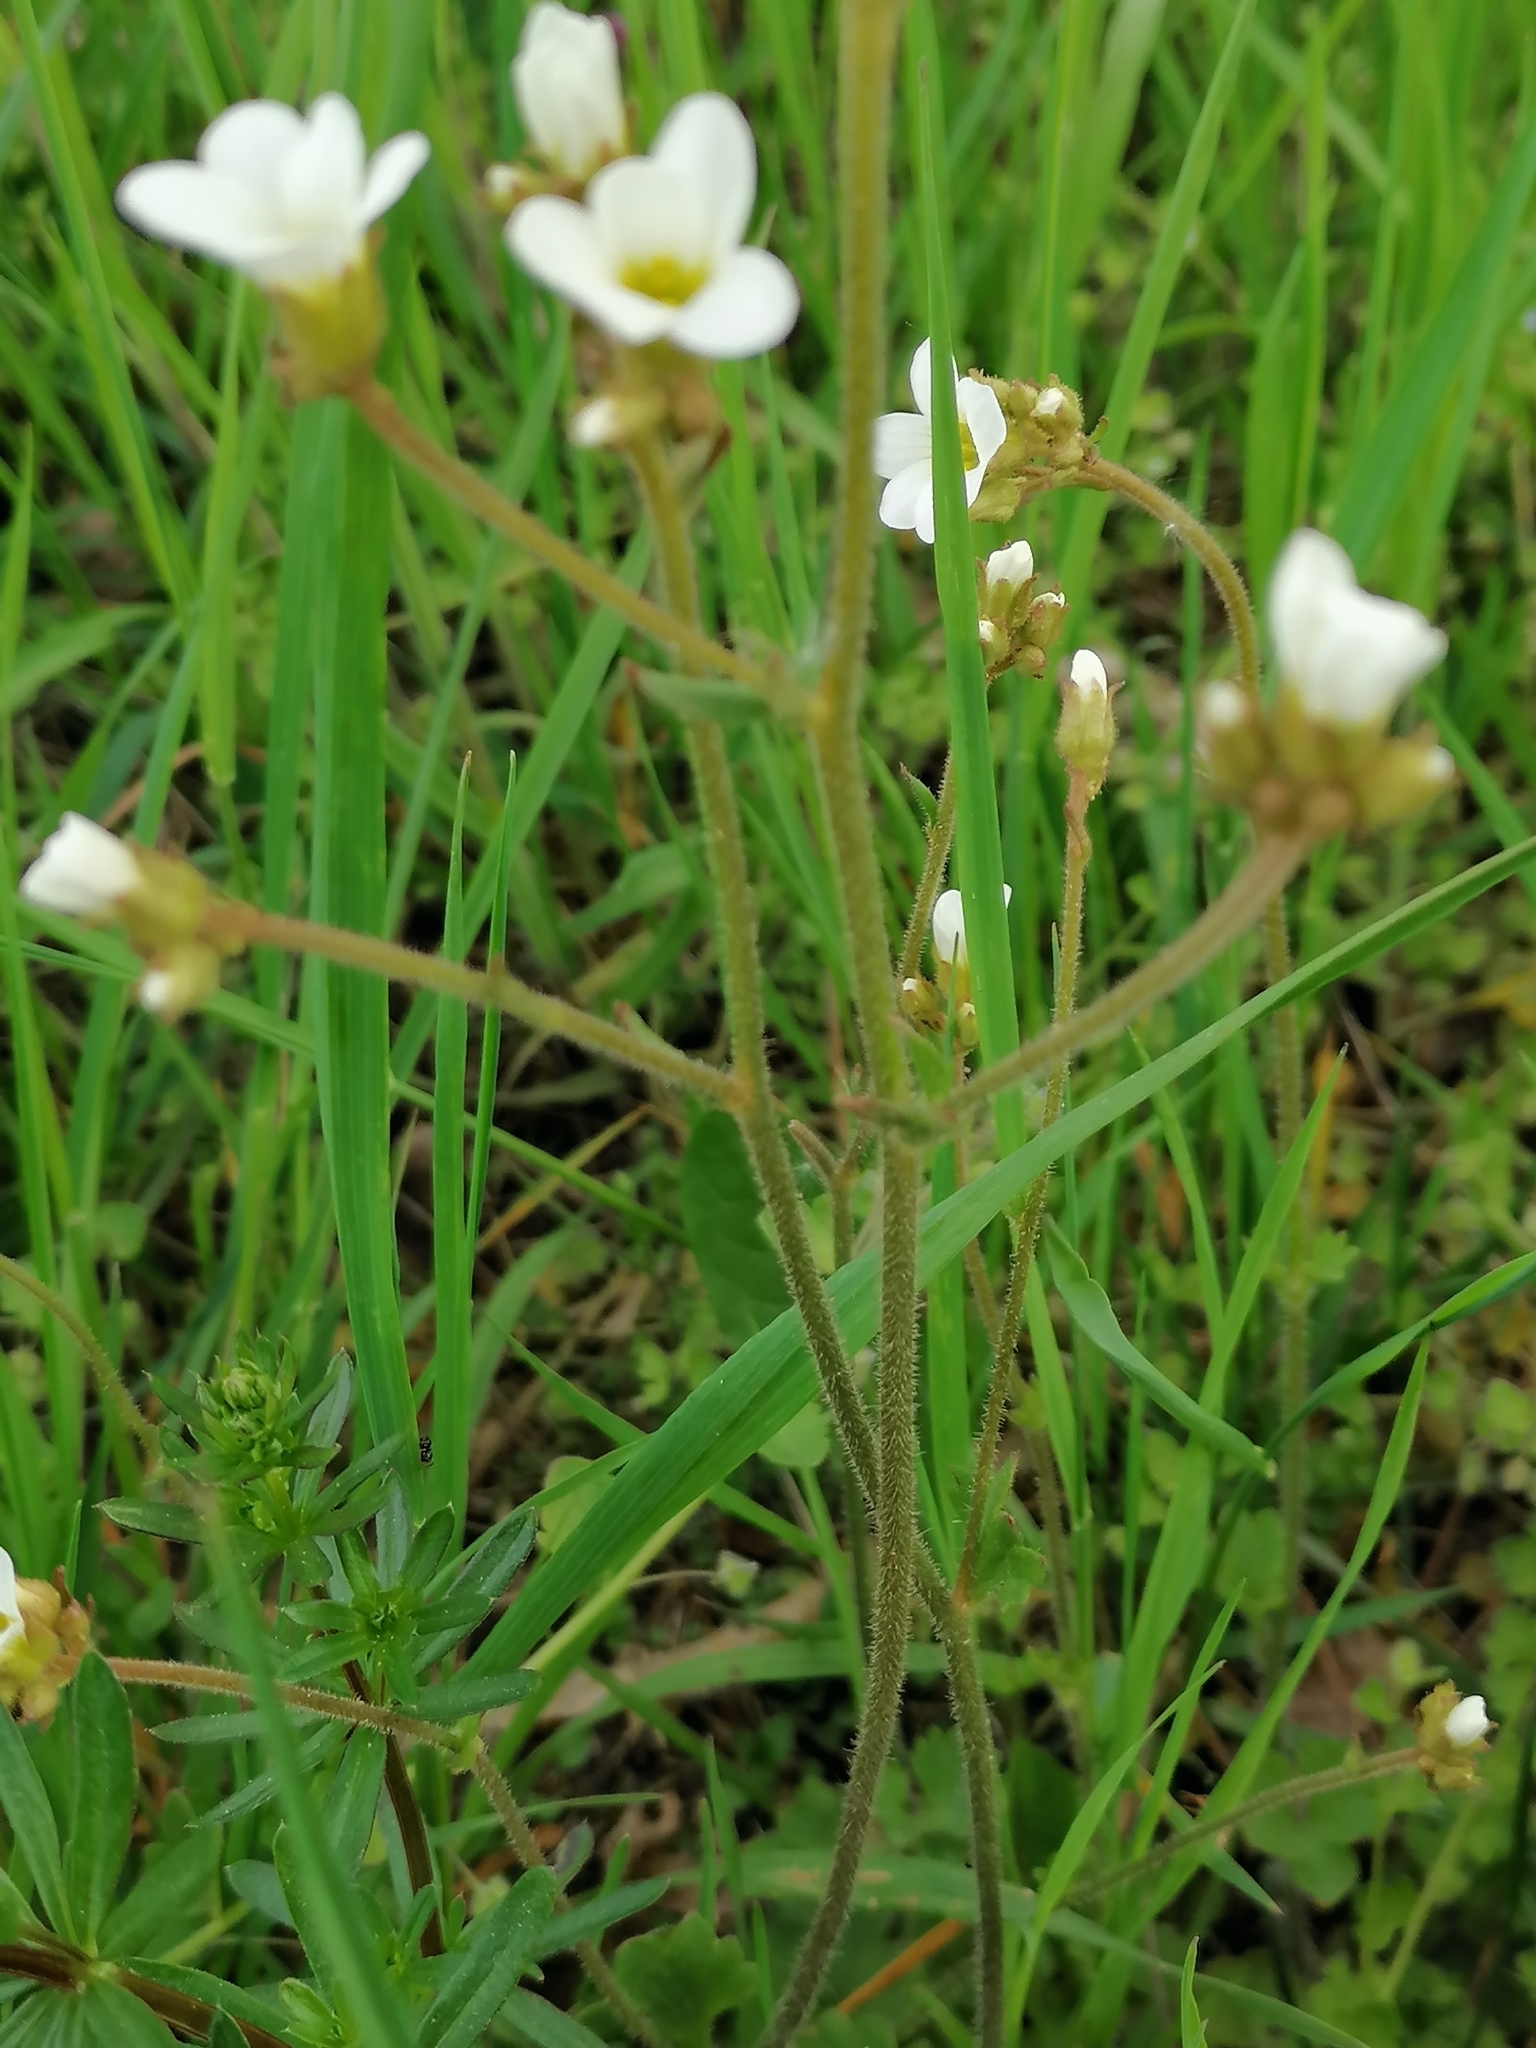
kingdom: Plantae
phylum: Tracheophyta
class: Magnoliopsida
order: Saxifragales
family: Saxifragaceae
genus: Saxifraga
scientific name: Saxifraga granulata
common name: Meadow saxifrage
